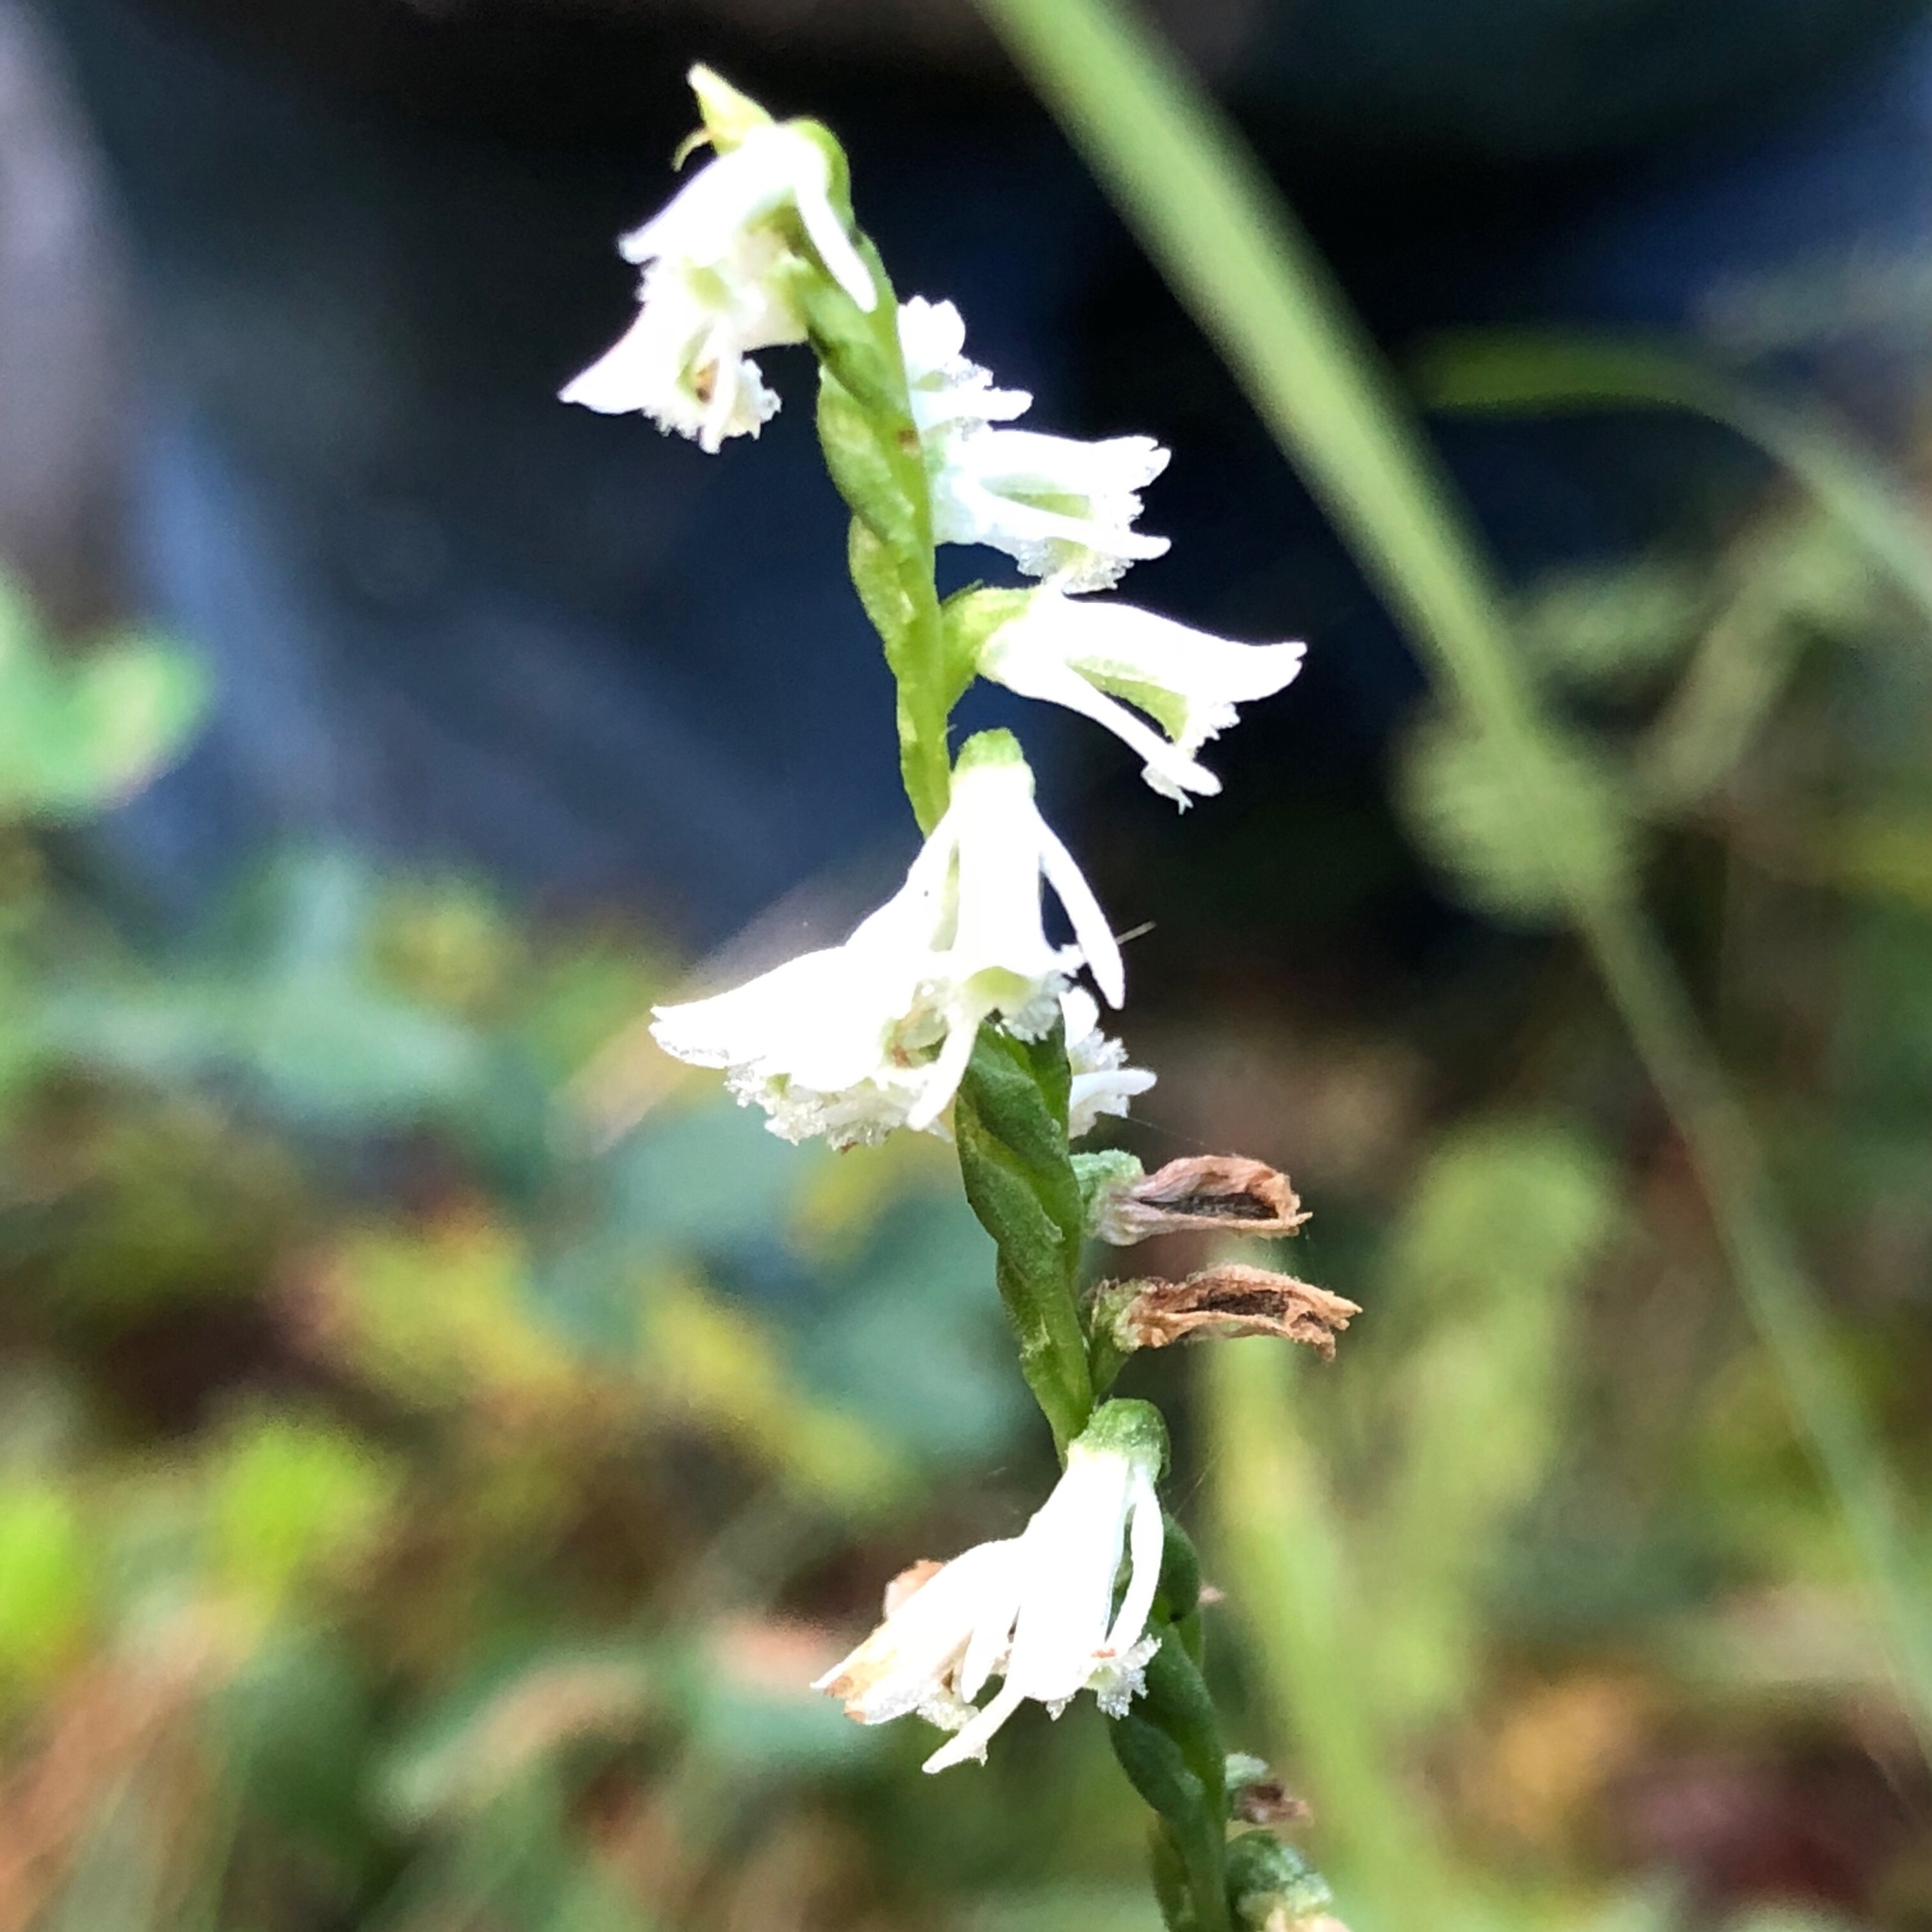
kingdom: Plantae
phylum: Tracheophyta
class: Liliopsida
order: Asparagales
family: Orchidaceae
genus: Spiranthes
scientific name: Spiranthes lacera
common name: Northern slender ladies'-tresses
